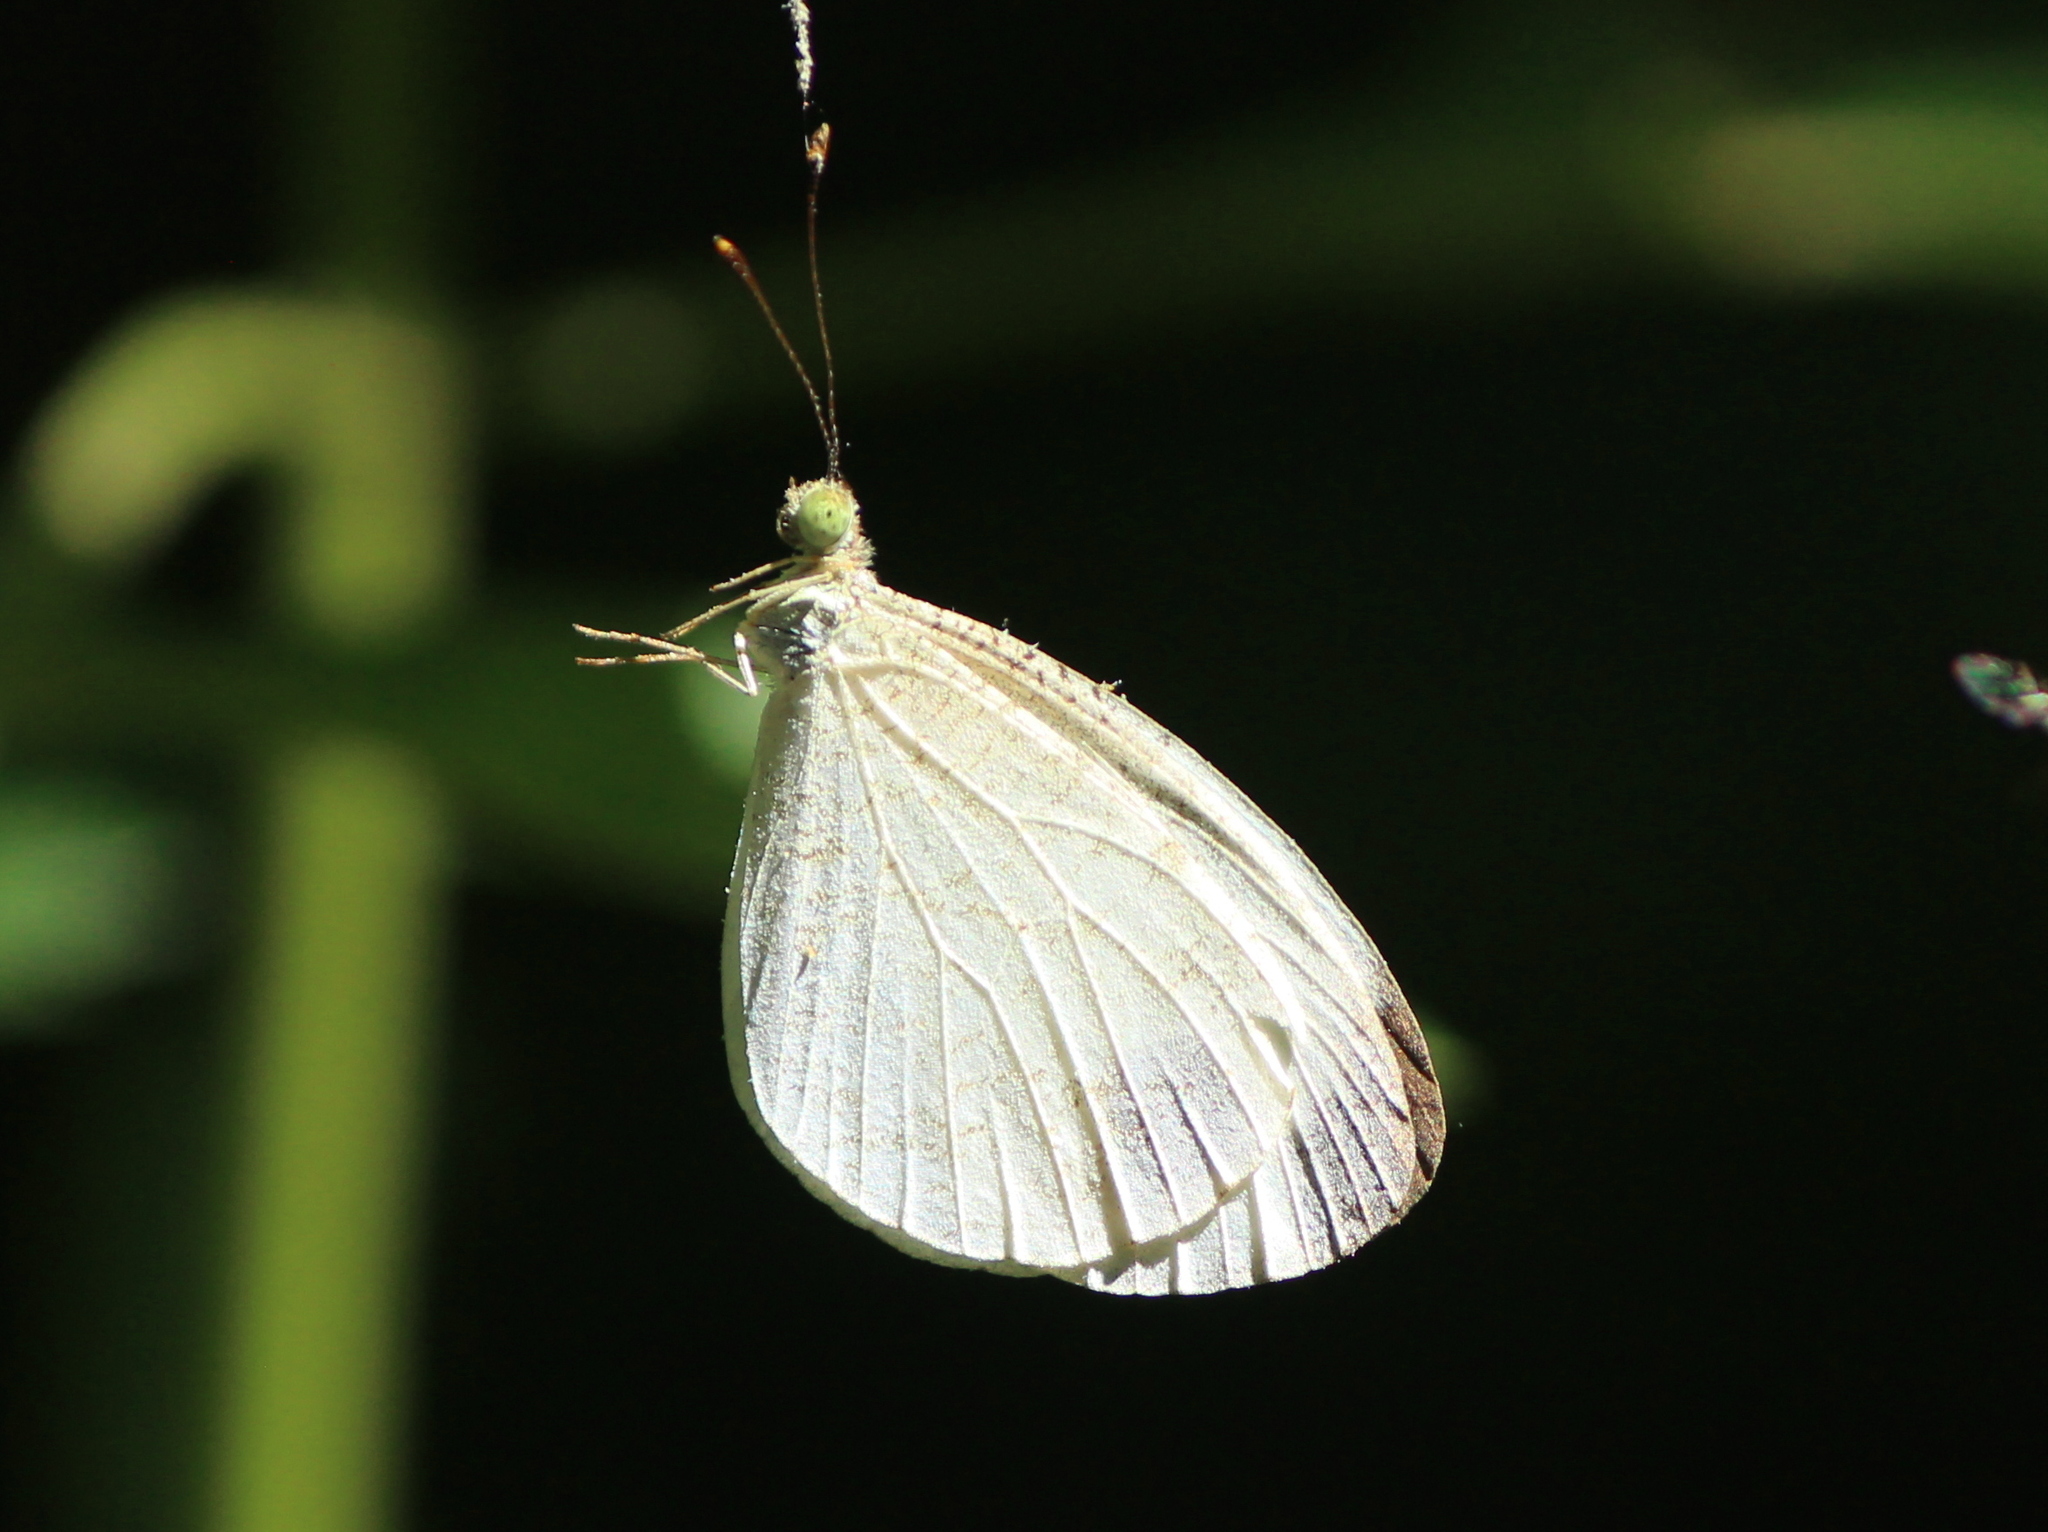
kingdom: Animalia
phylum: Arthropoda
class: Insecta
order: Lepidoptera
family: Pieridae
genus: Leptosia
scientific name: Leptosia nina
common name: Psyche
